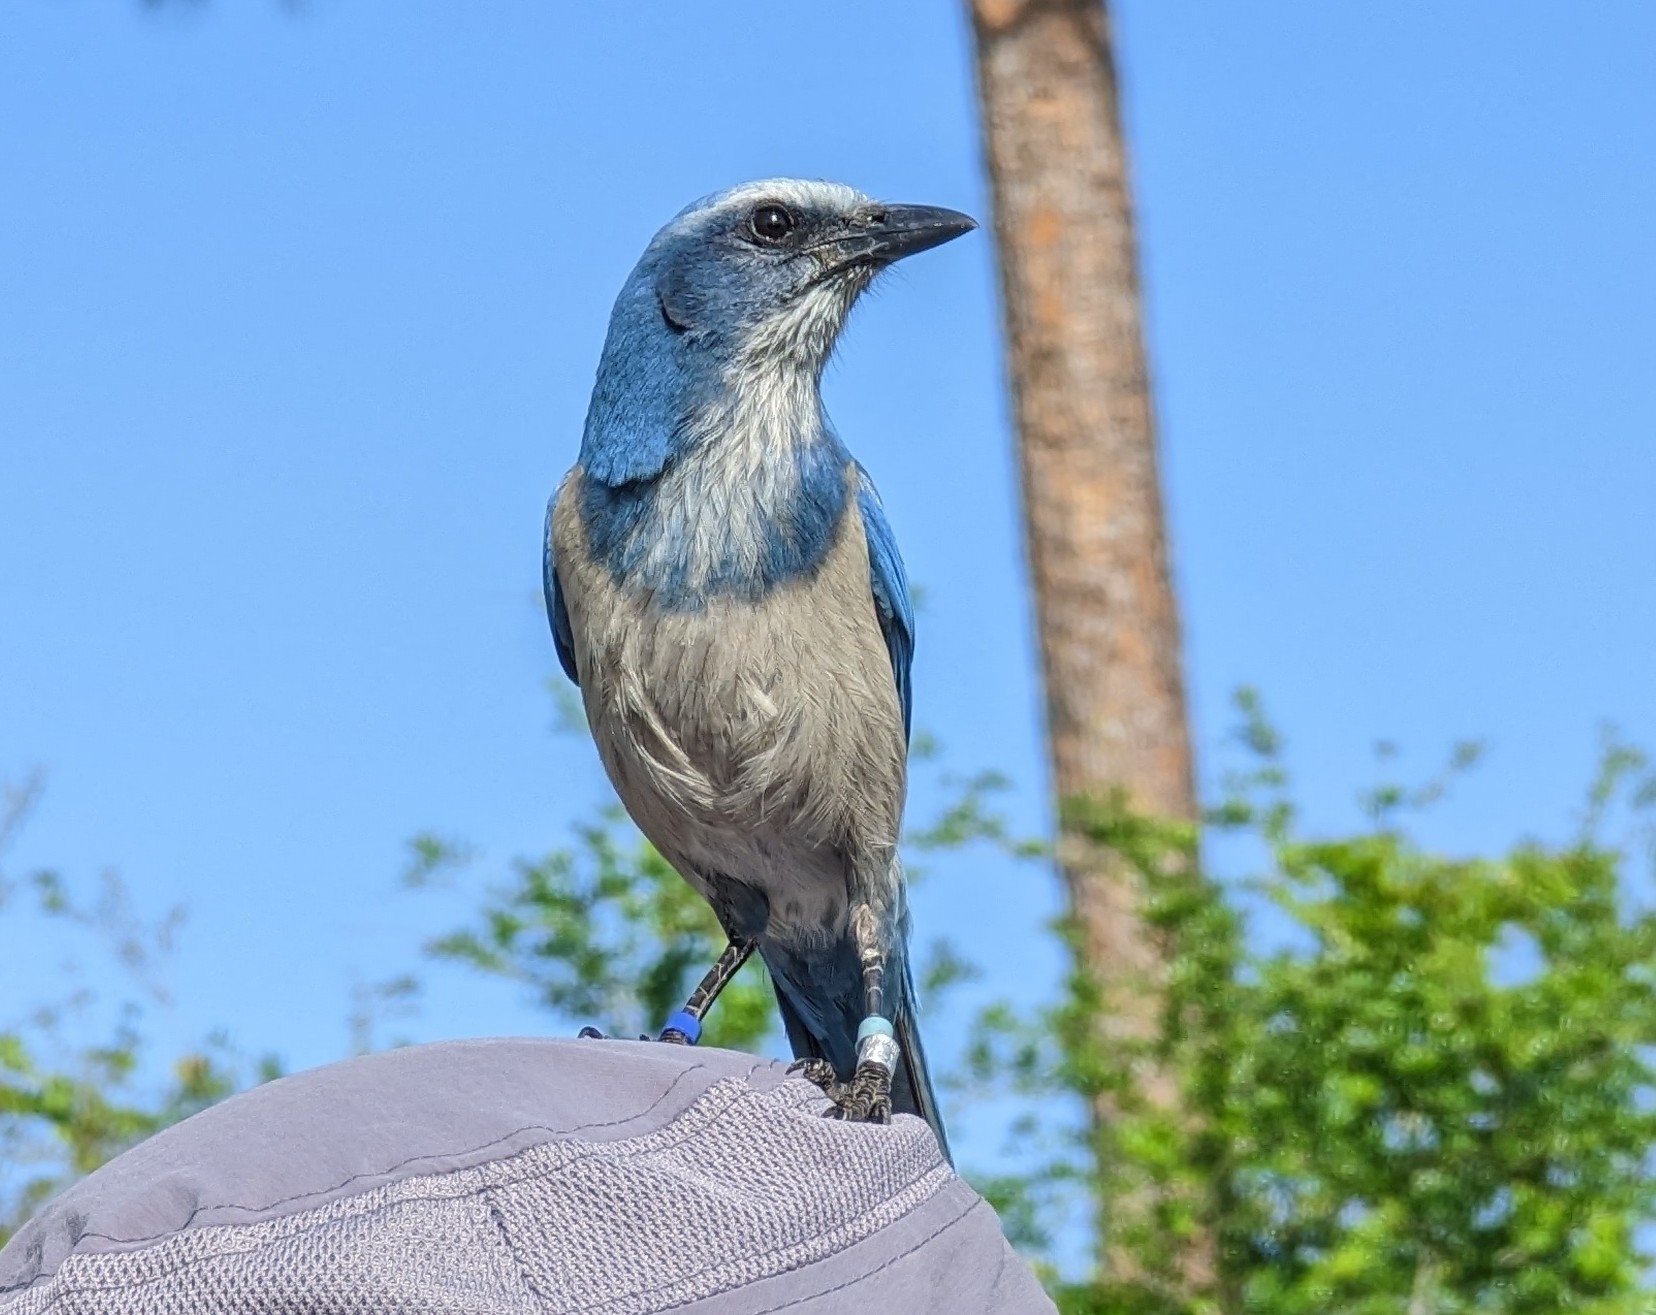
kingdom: Animalia
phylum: Chordata
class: Aves
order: Passeriformes
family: Corvidae
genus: Aphelocoma
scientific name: Aphelocoma coerulescens
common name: Florida scrub jay
